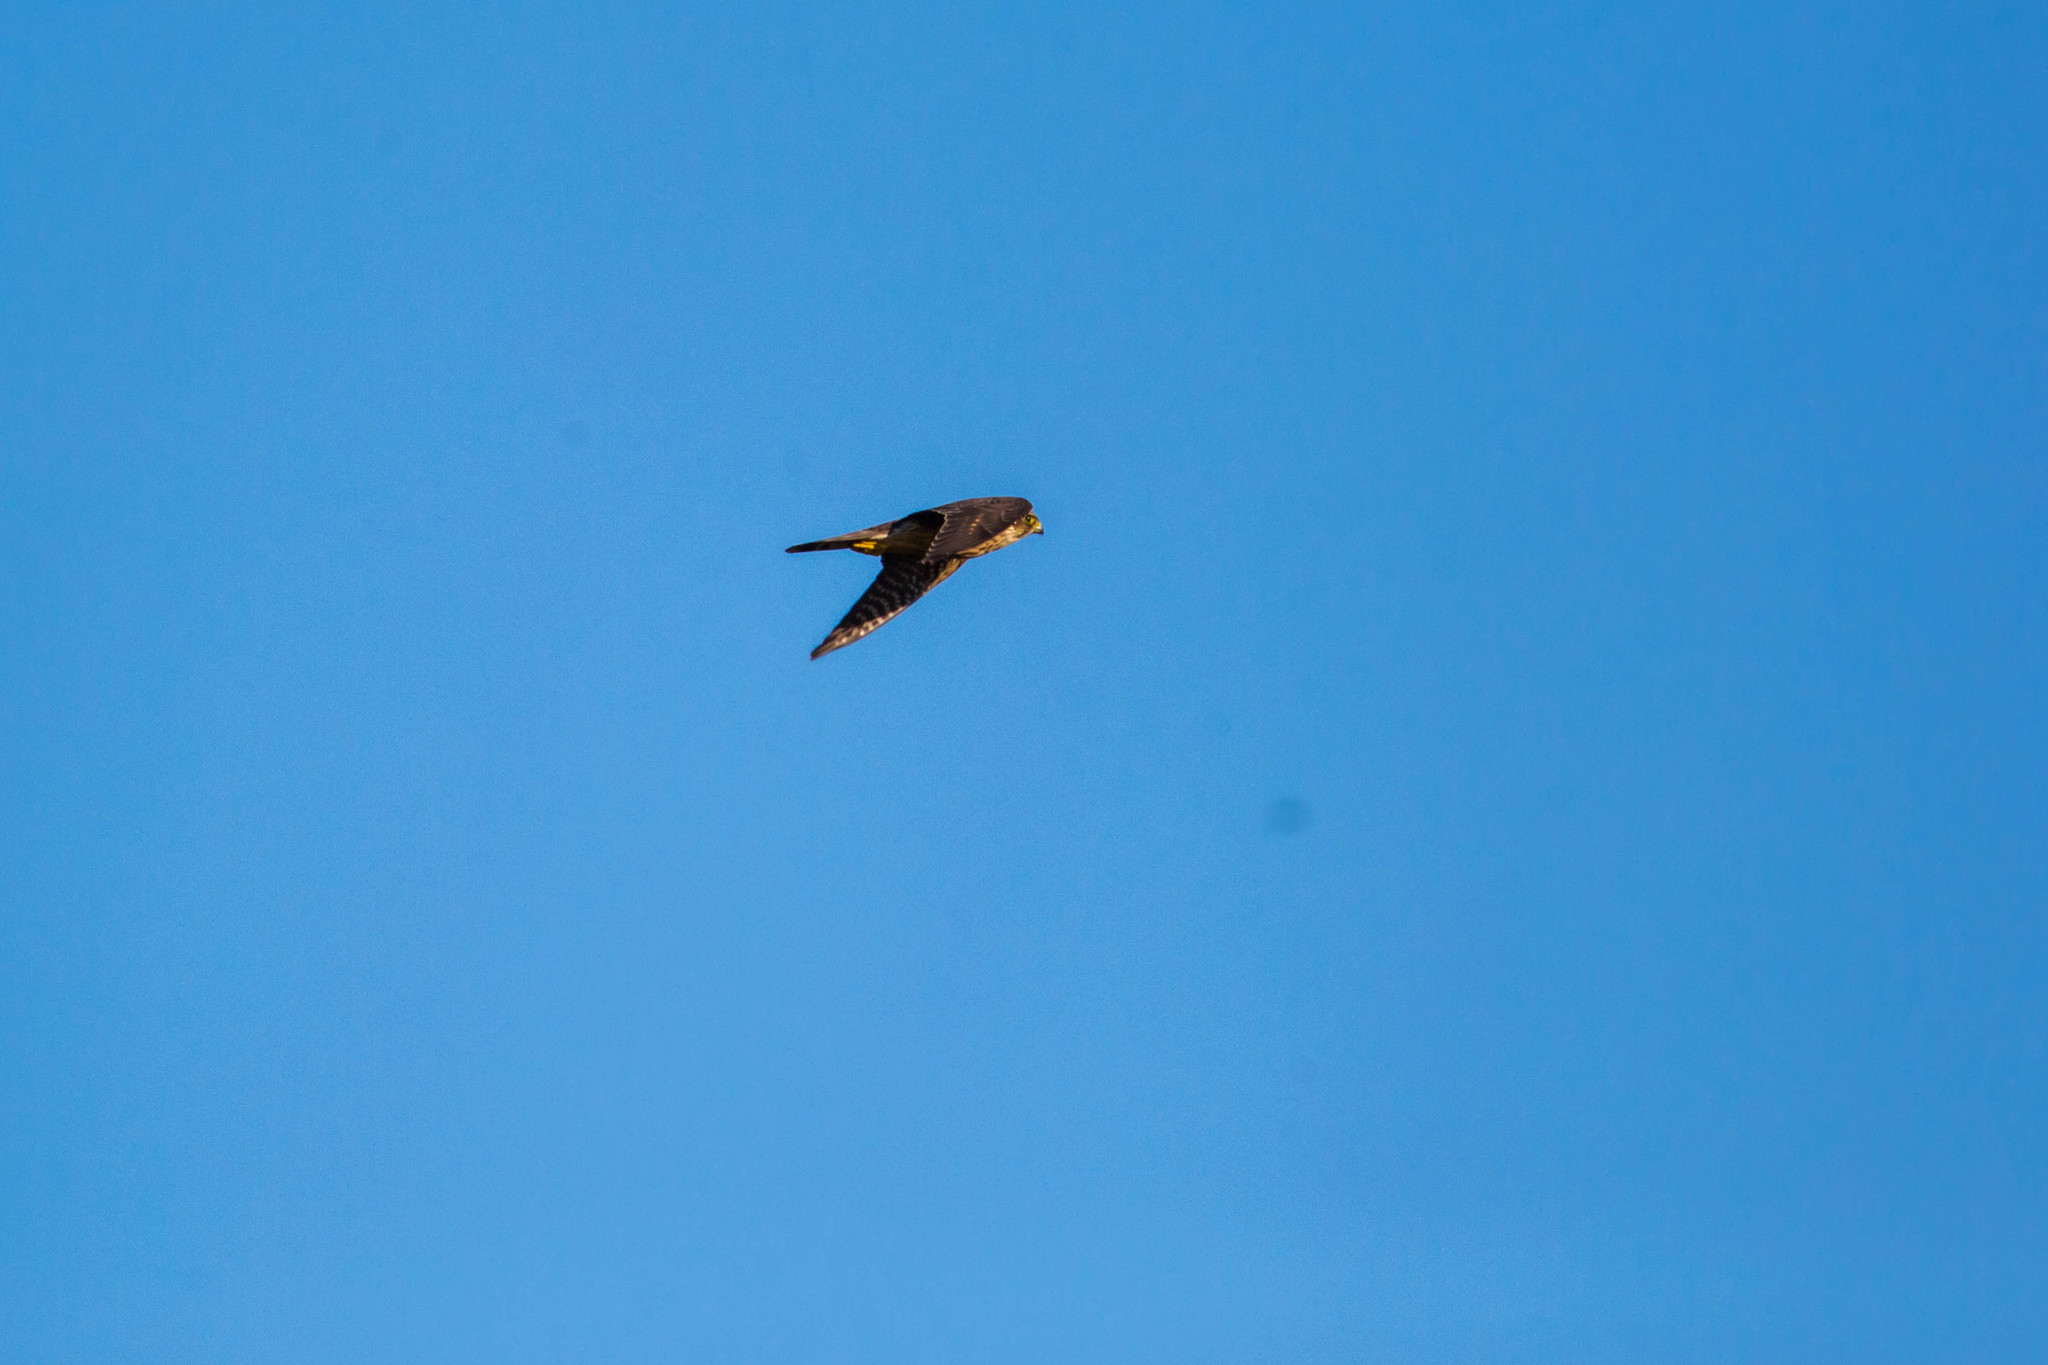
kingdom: Animalia
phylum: Chordata
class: Aves
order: Falconiformes
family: Falconidae
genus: Falco
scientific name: Falco columbarius
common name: Merlin
